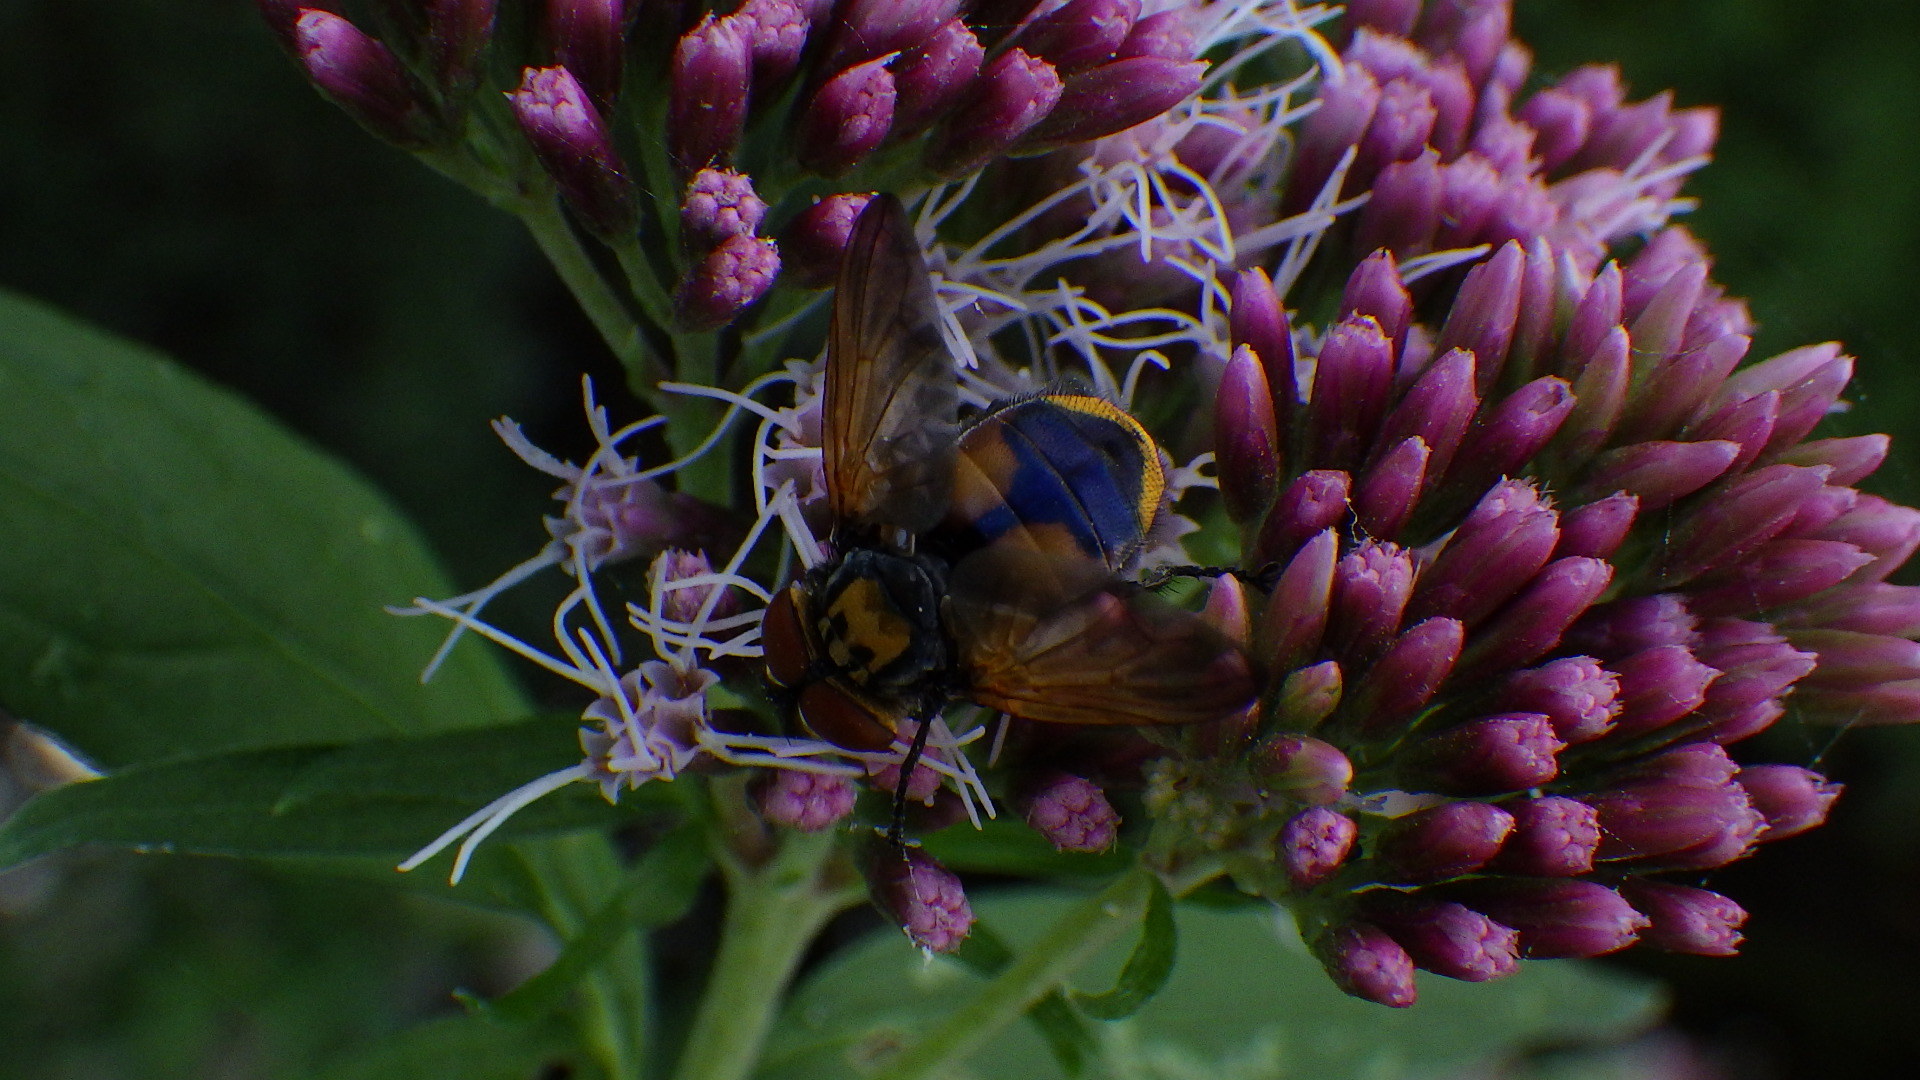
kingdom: Animalia
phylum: Arthropoda
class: Insecta
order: Diptera
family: Tachinidae
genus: Phasia
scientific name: Phasia aurigera
